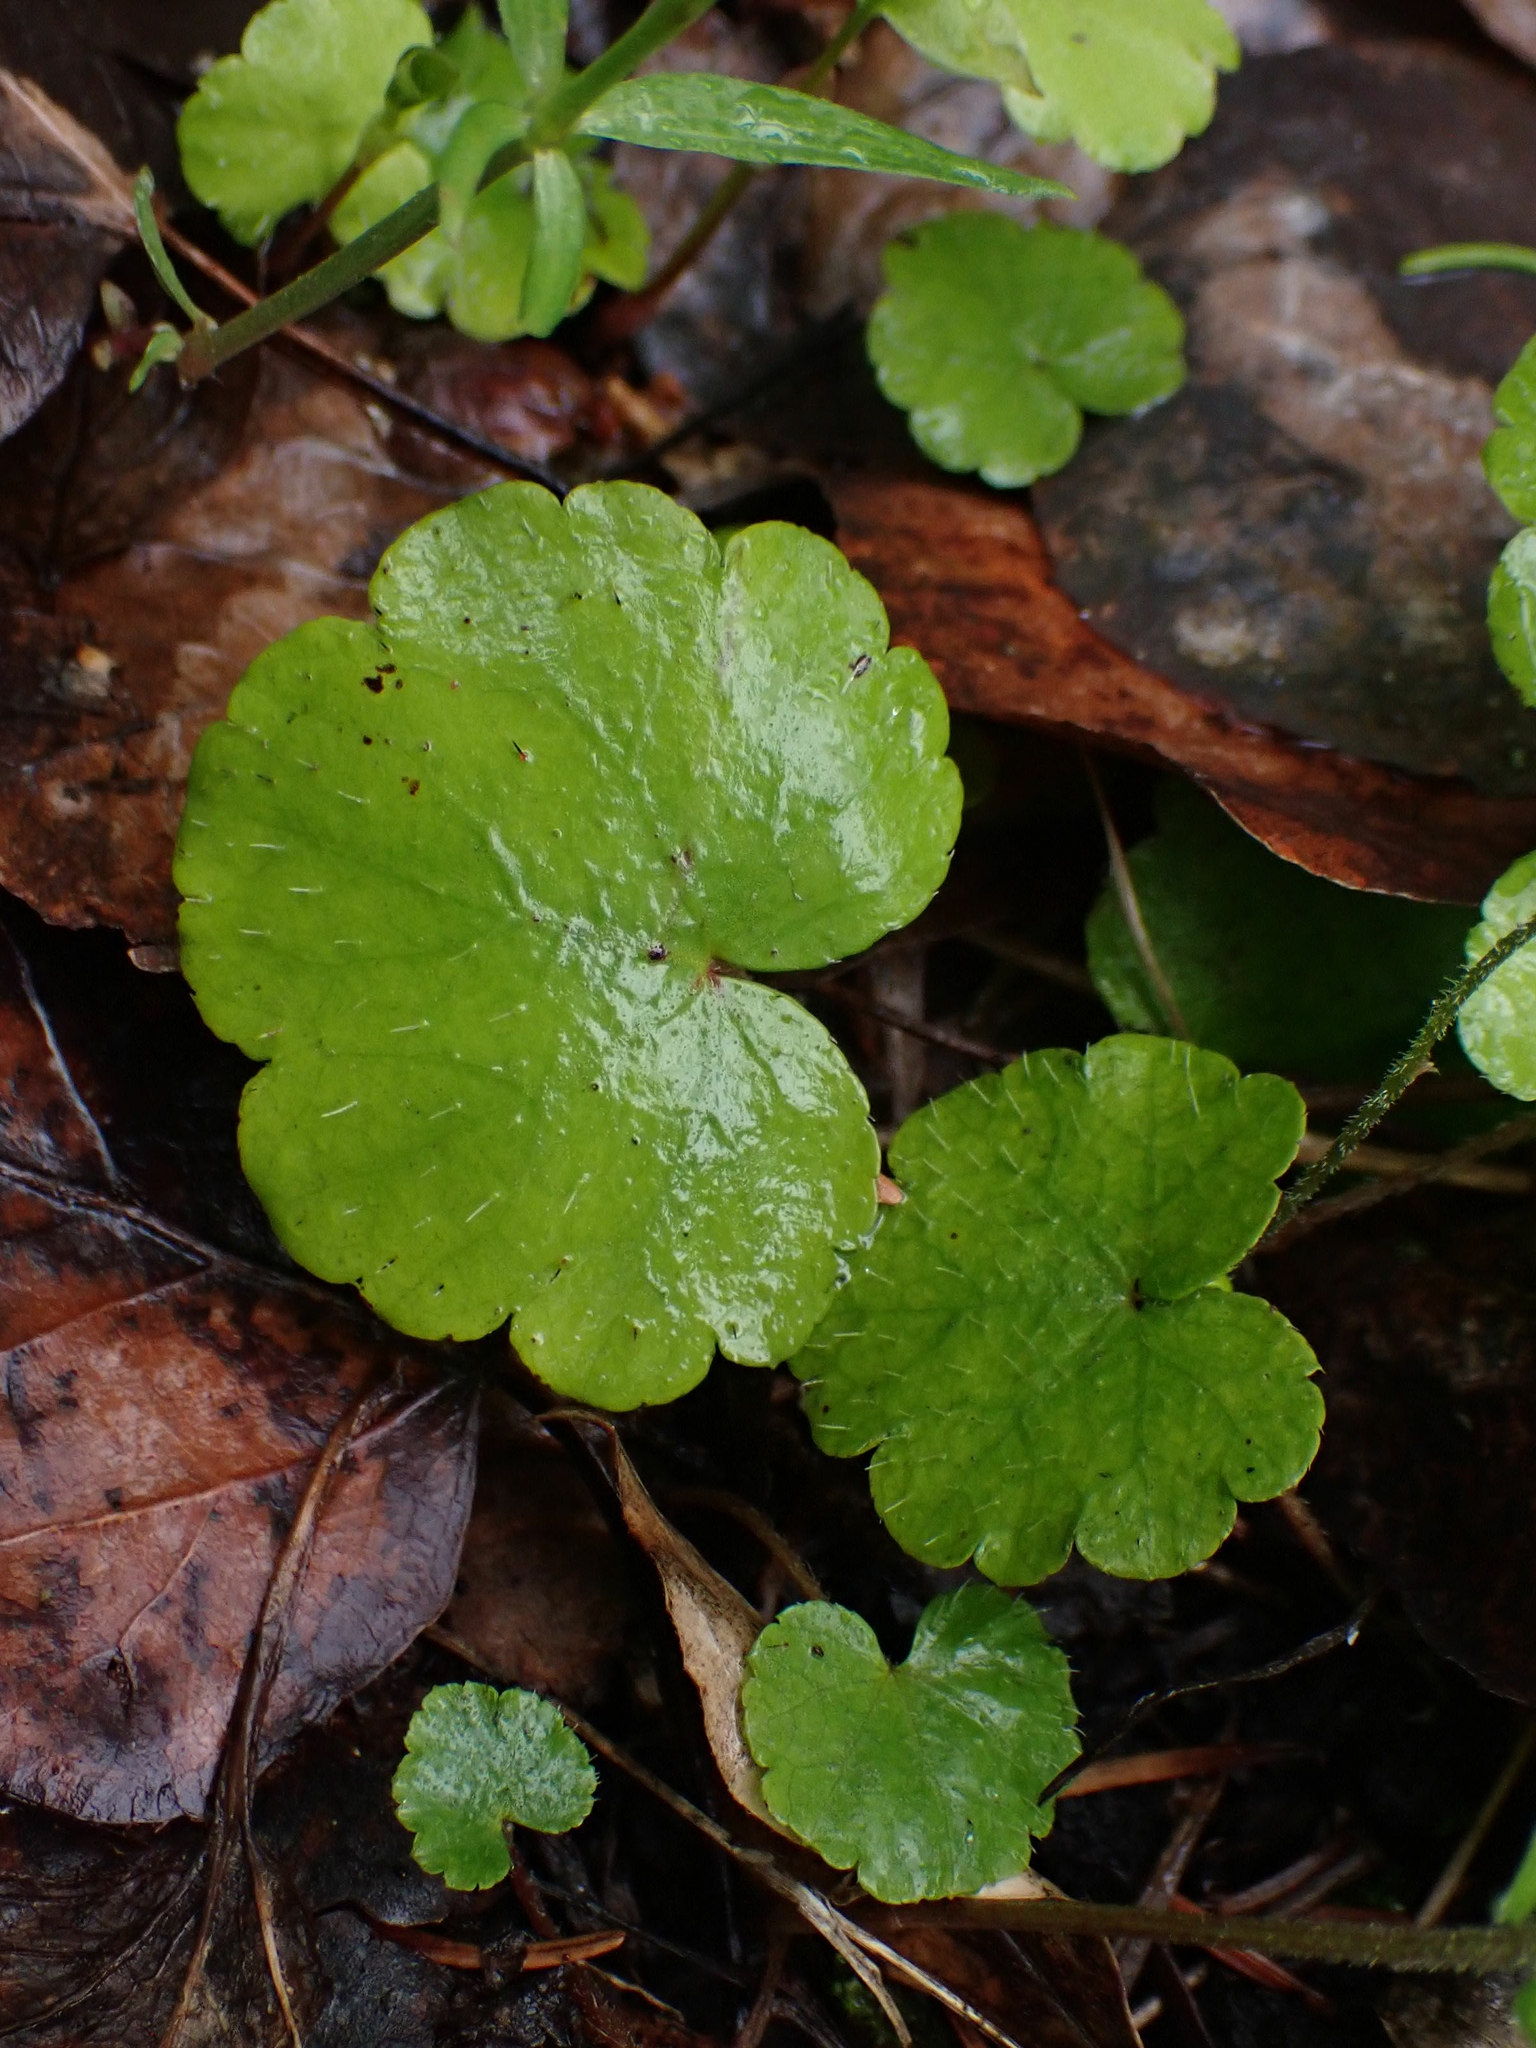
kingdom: Plantae
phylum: Tracheophyta
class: Magnoliopsida
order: Saxifragales
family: Saxifragaceae
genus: Mitella
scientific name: Mitella nuda
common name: Bare-stemmed bishop's-cap
